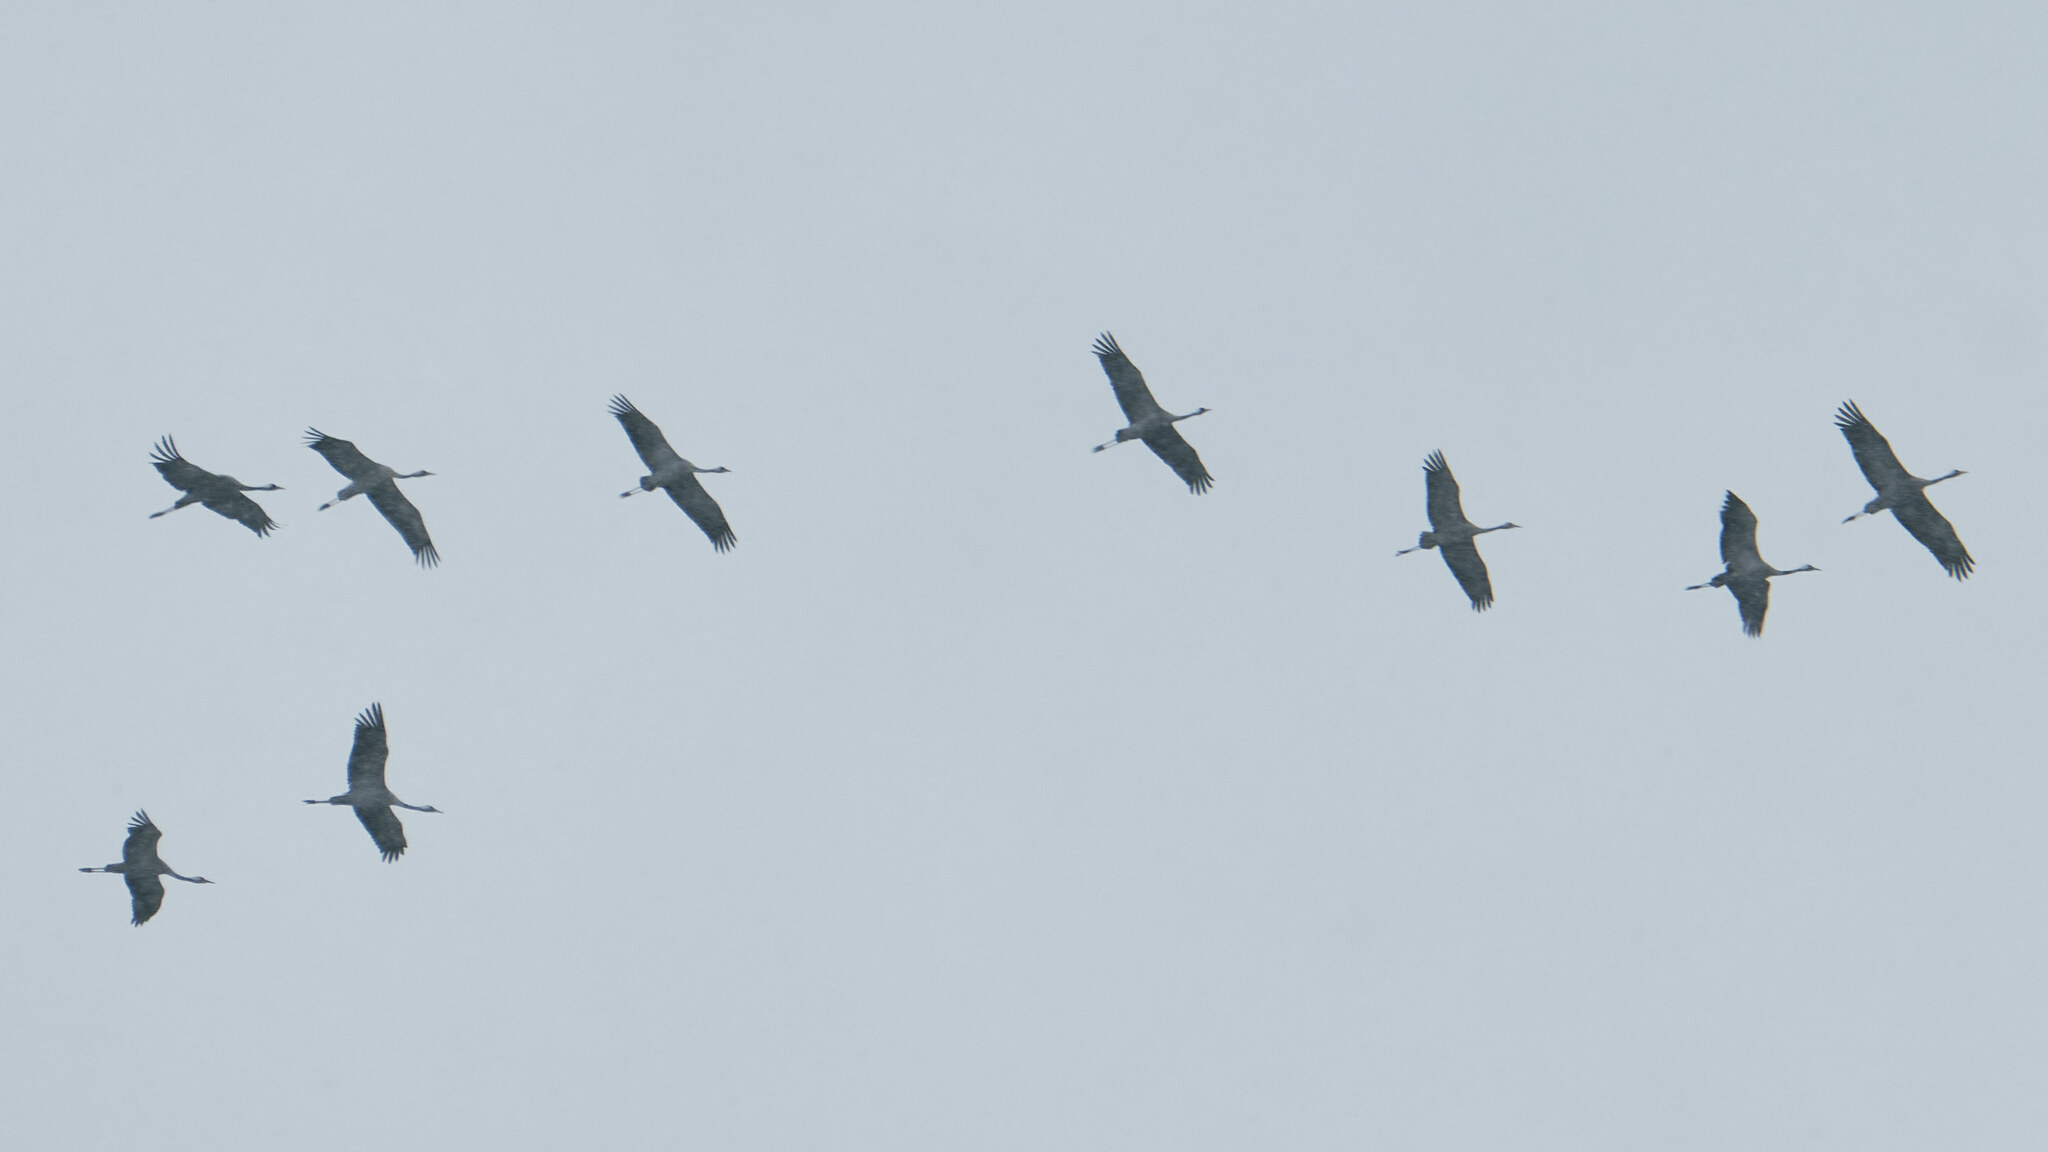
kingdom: Animalia
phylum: Chordata
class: Aves
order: Gruiformes
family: Gruidae
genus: Grus
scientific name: Grus grus
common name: Common crane
